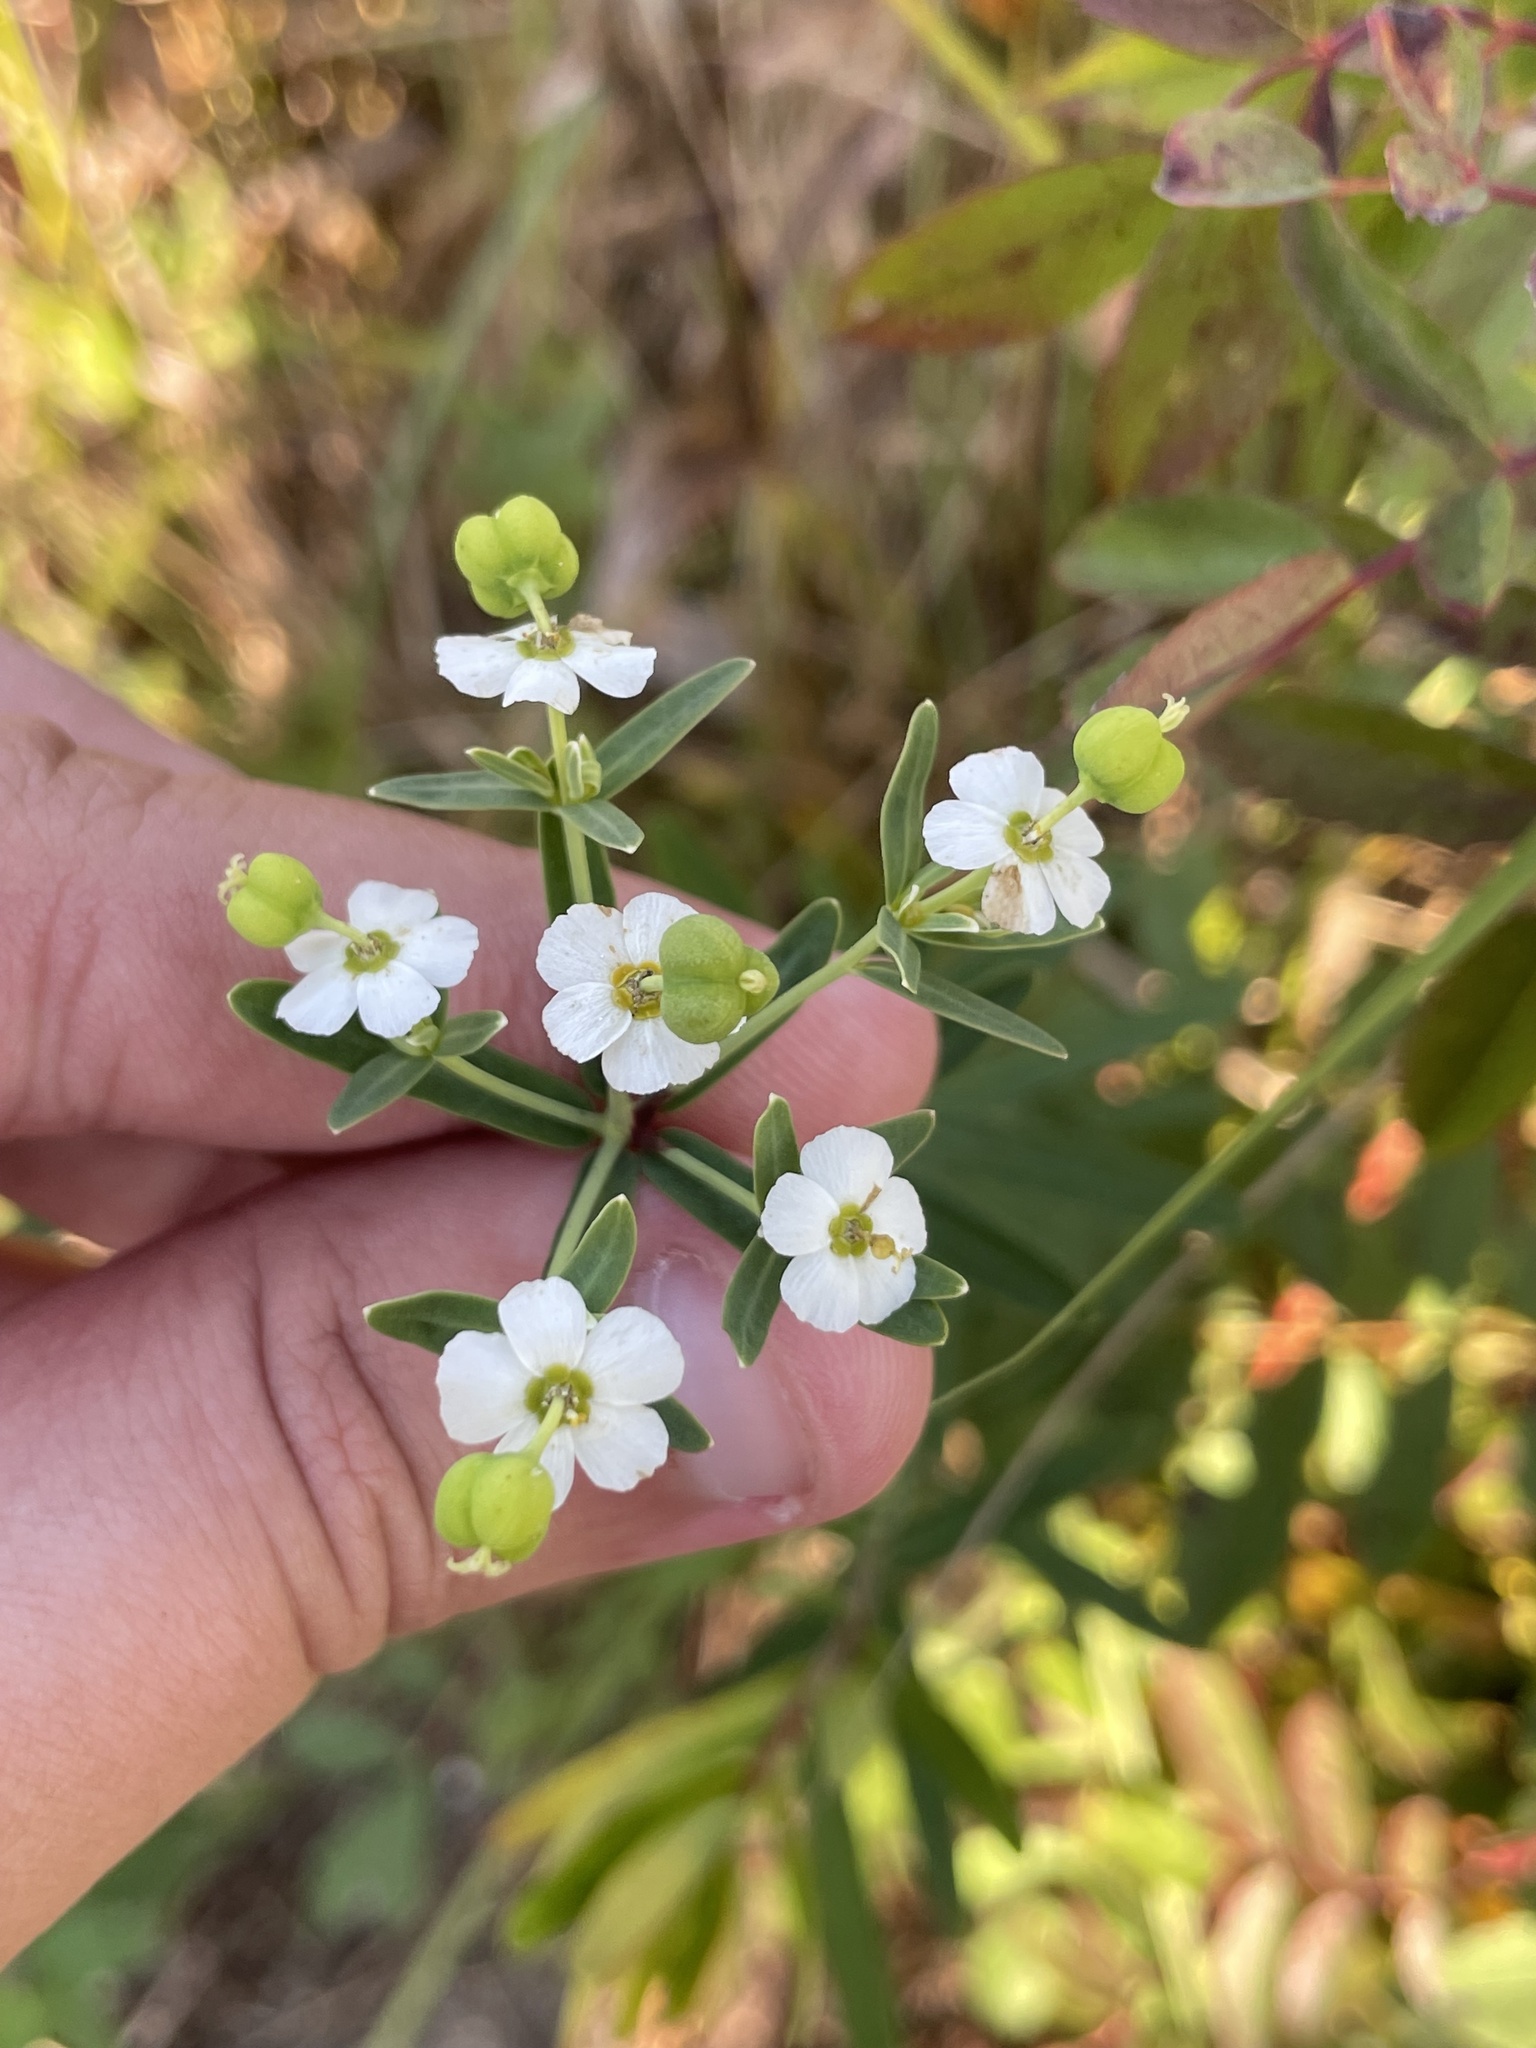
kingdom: Plantae
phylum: Tracheophyta
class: Magnoliopsida
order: Malpighiales
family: Euphorbiaceae
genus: Euphorbia
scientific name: Euphorbia corollata
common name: Flowering spurge
